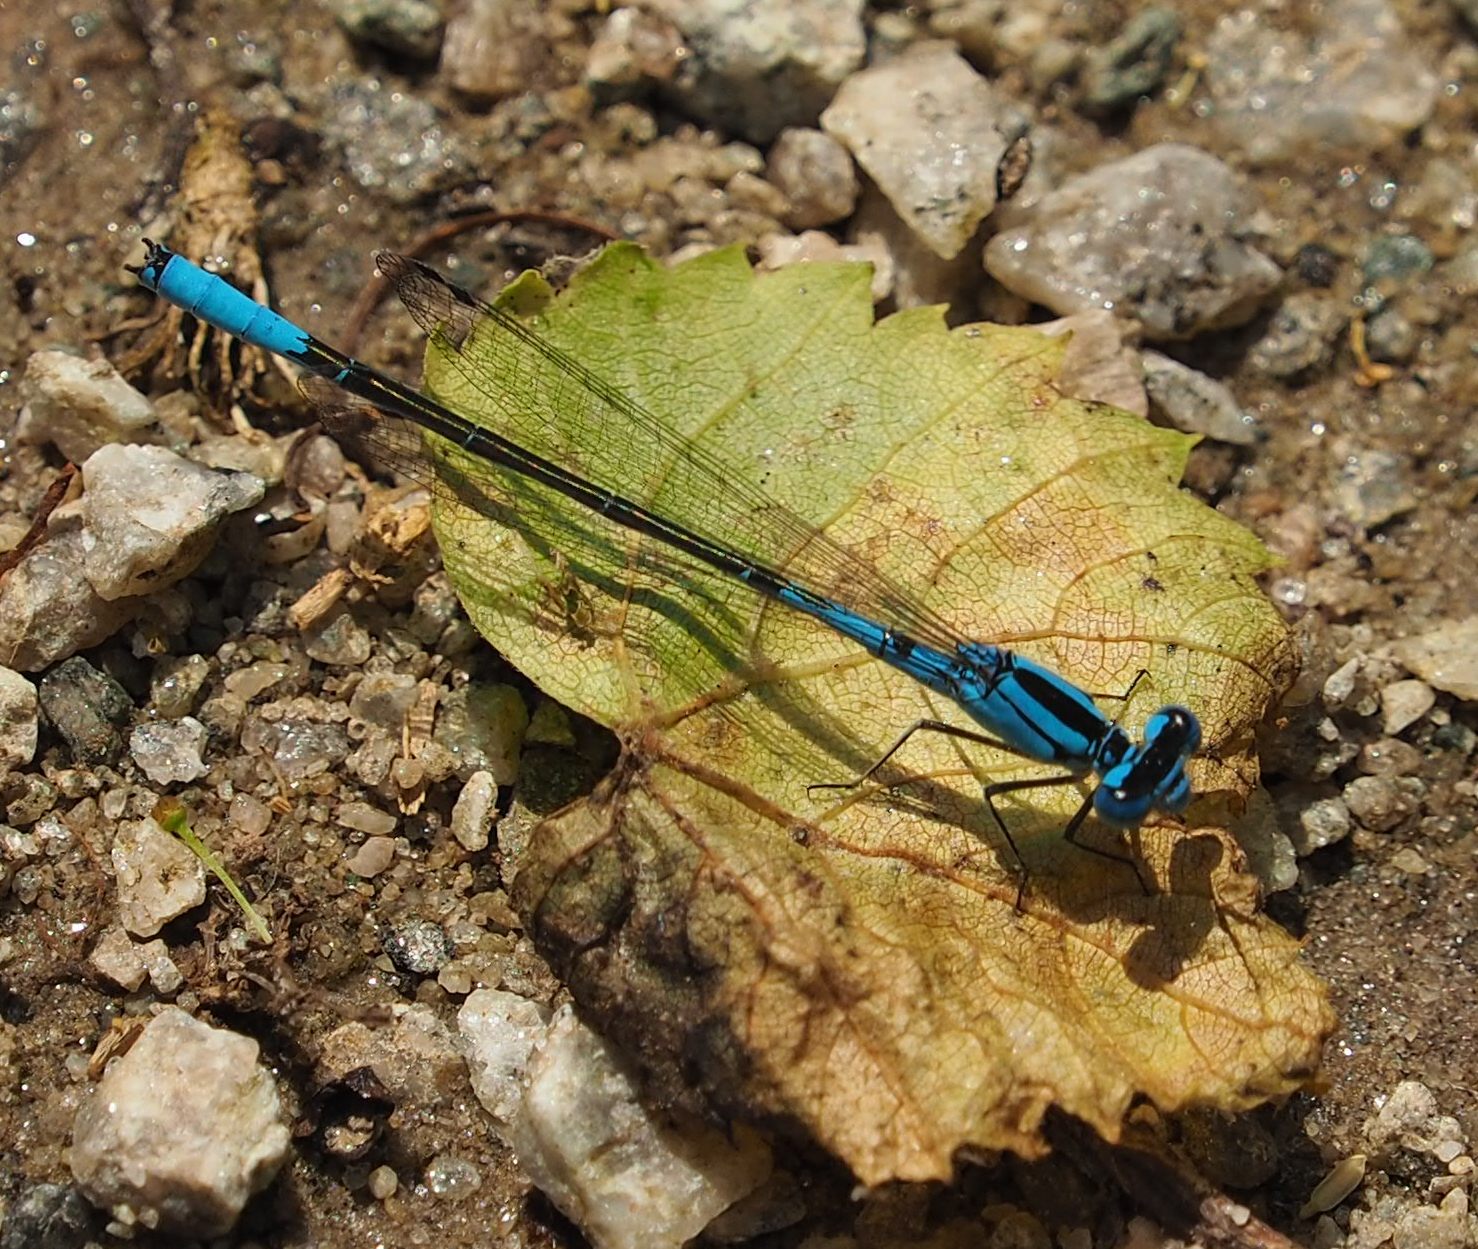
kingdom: Animalia
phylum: Arthropoda
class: Insecta
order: Odonata
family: Coenagrionidae
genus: Enallagma
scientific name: Enallagma aspersum
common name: Azure bluet
